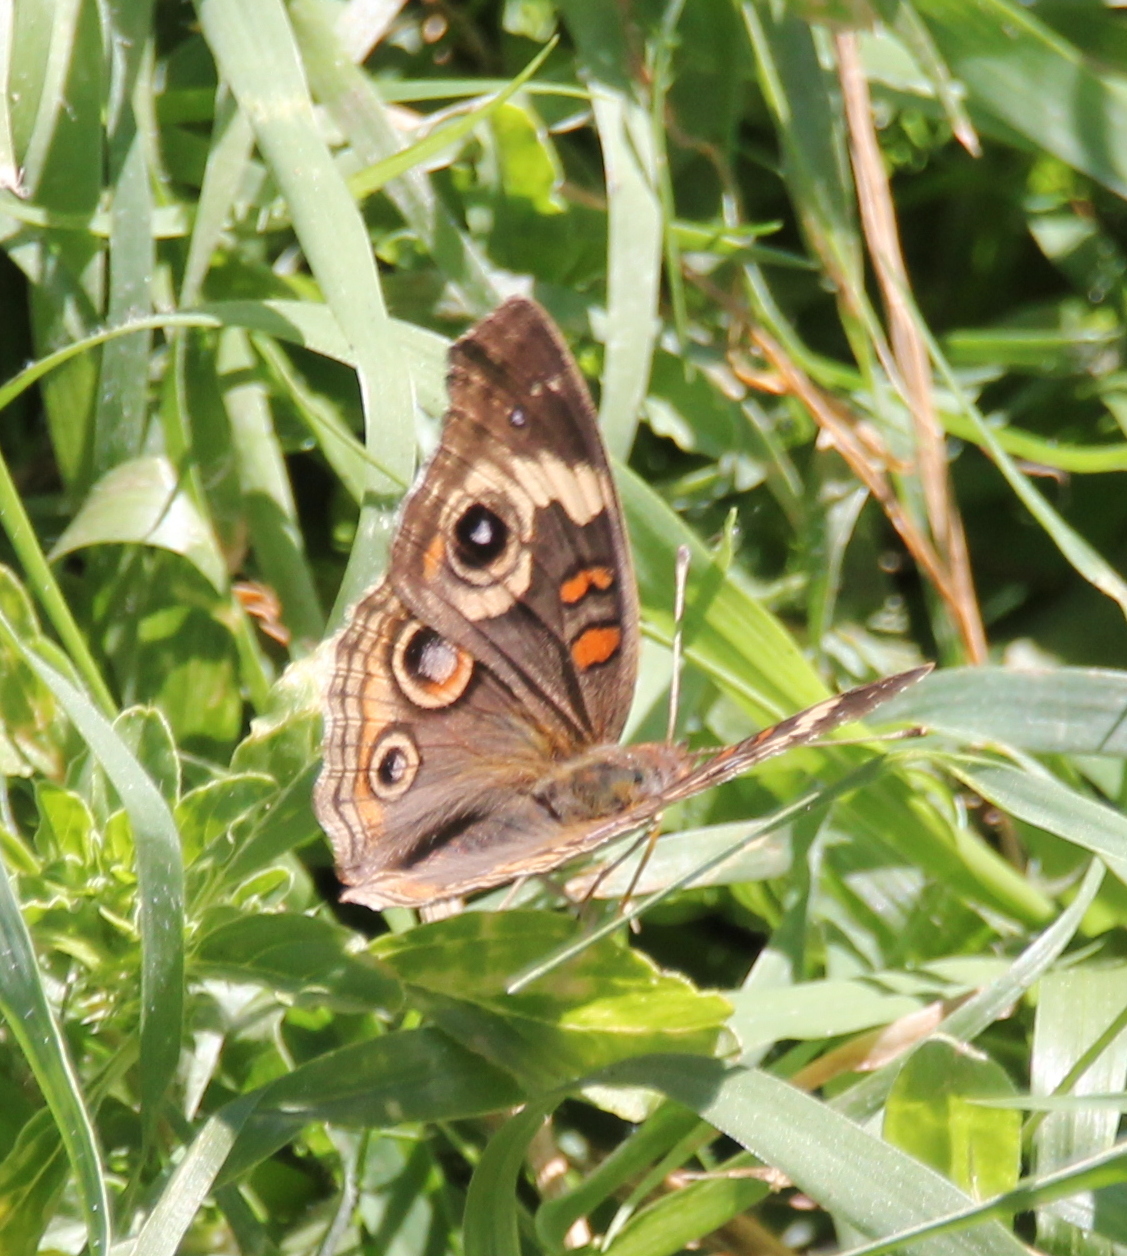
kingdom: Animalia
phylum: Arthropoda
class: Insecta
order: Lepidoptera
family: Nymphalidae
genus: Junonia
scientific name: Junonia grisea
